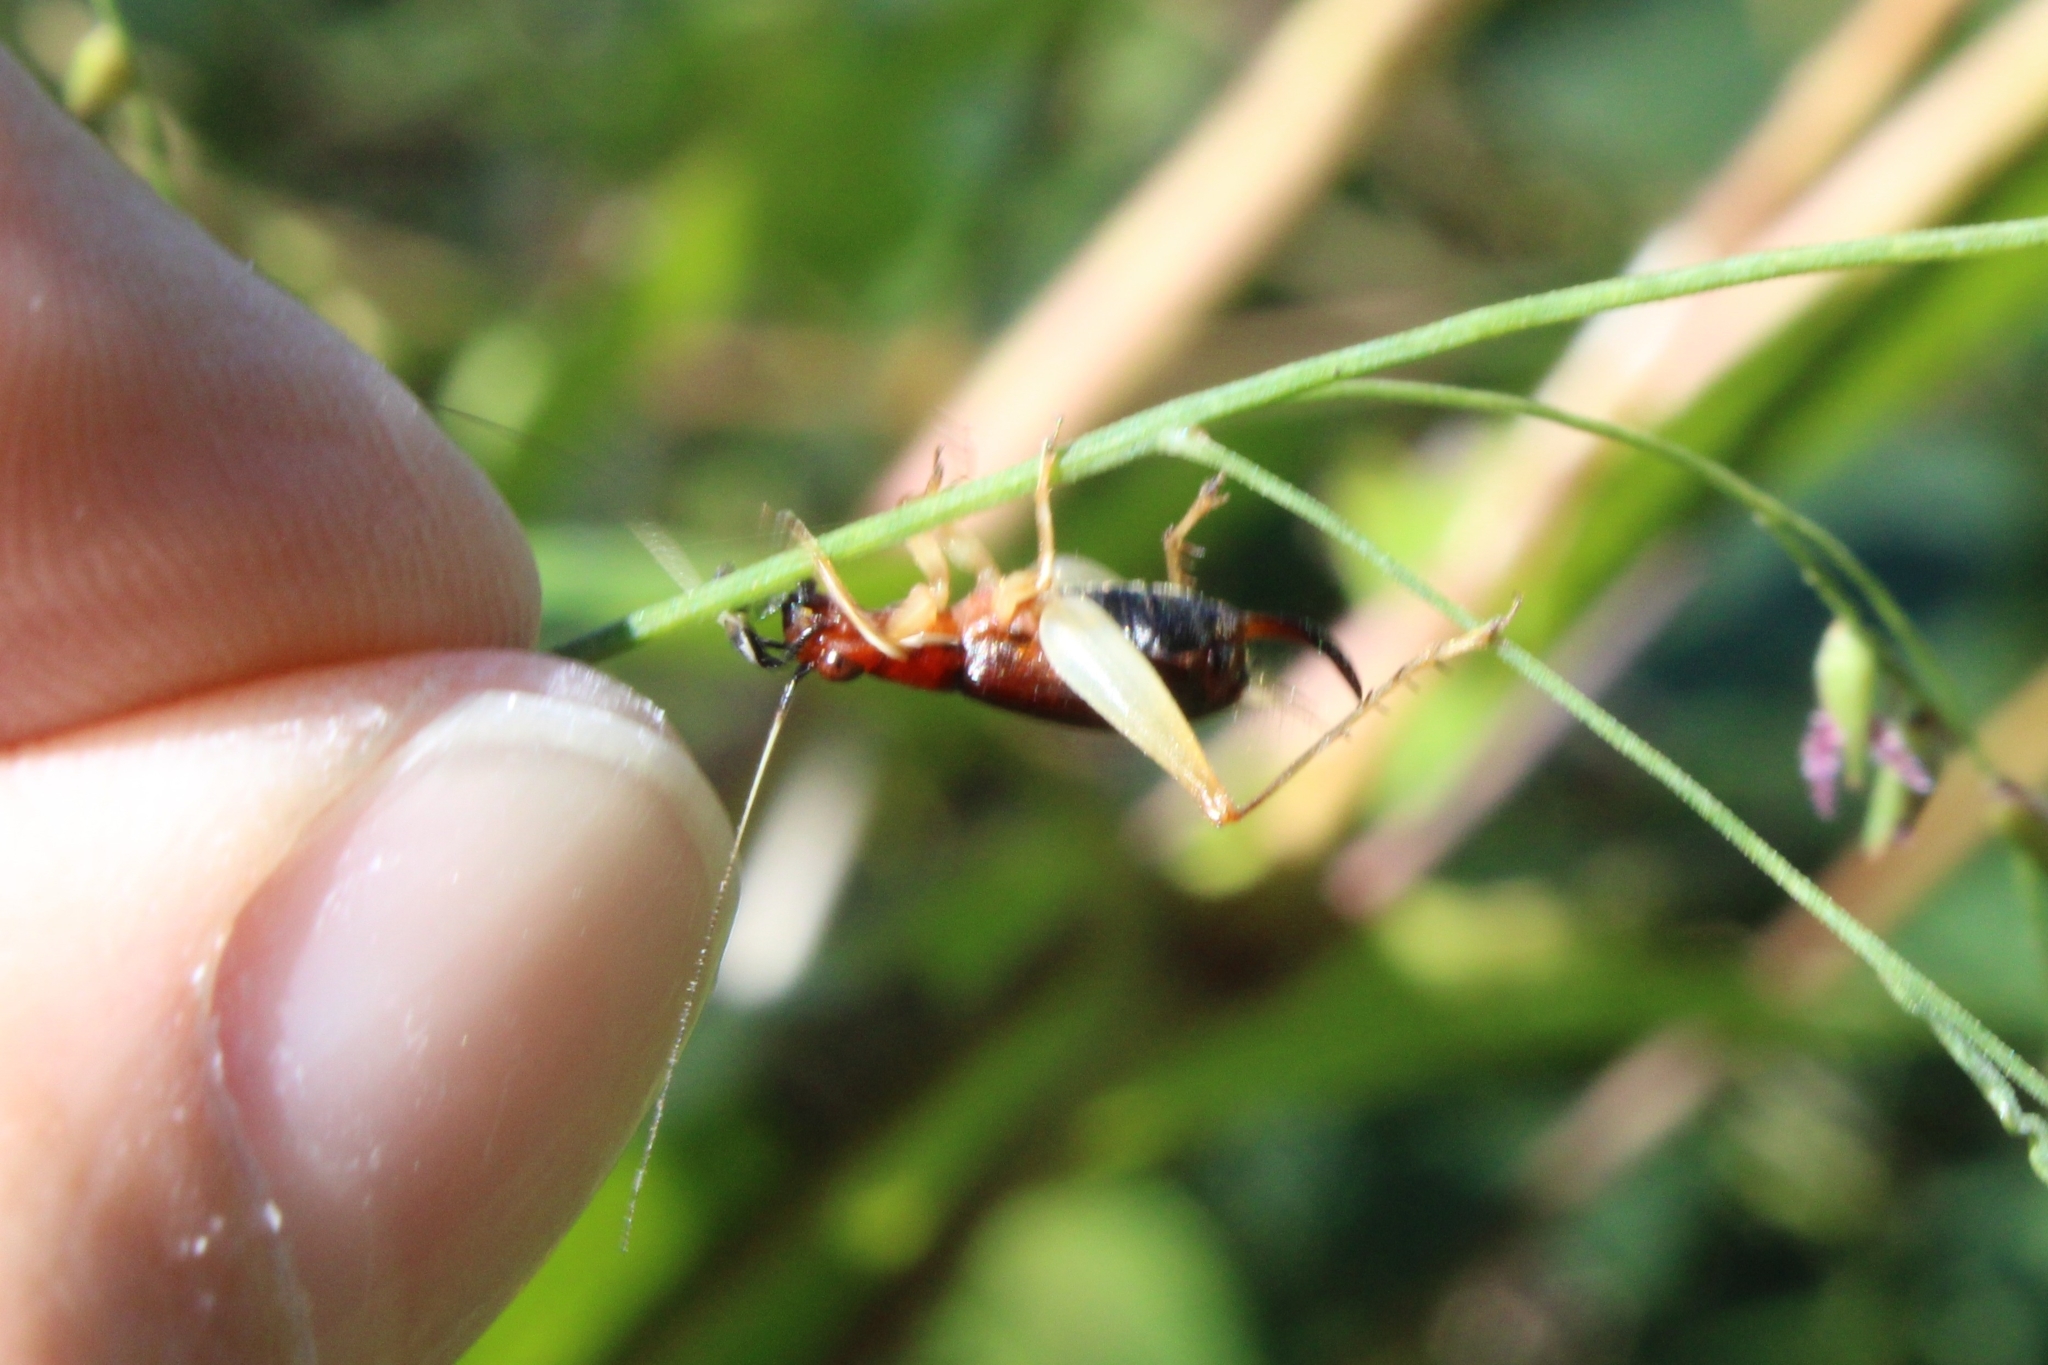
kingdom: Animalia
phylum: Arthropoda
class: Insecta
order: Orthoptera
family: Trigonidiidae
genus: Phyllopalpus
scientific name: Phyllopalpus pulchellus
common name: Handsome trig
